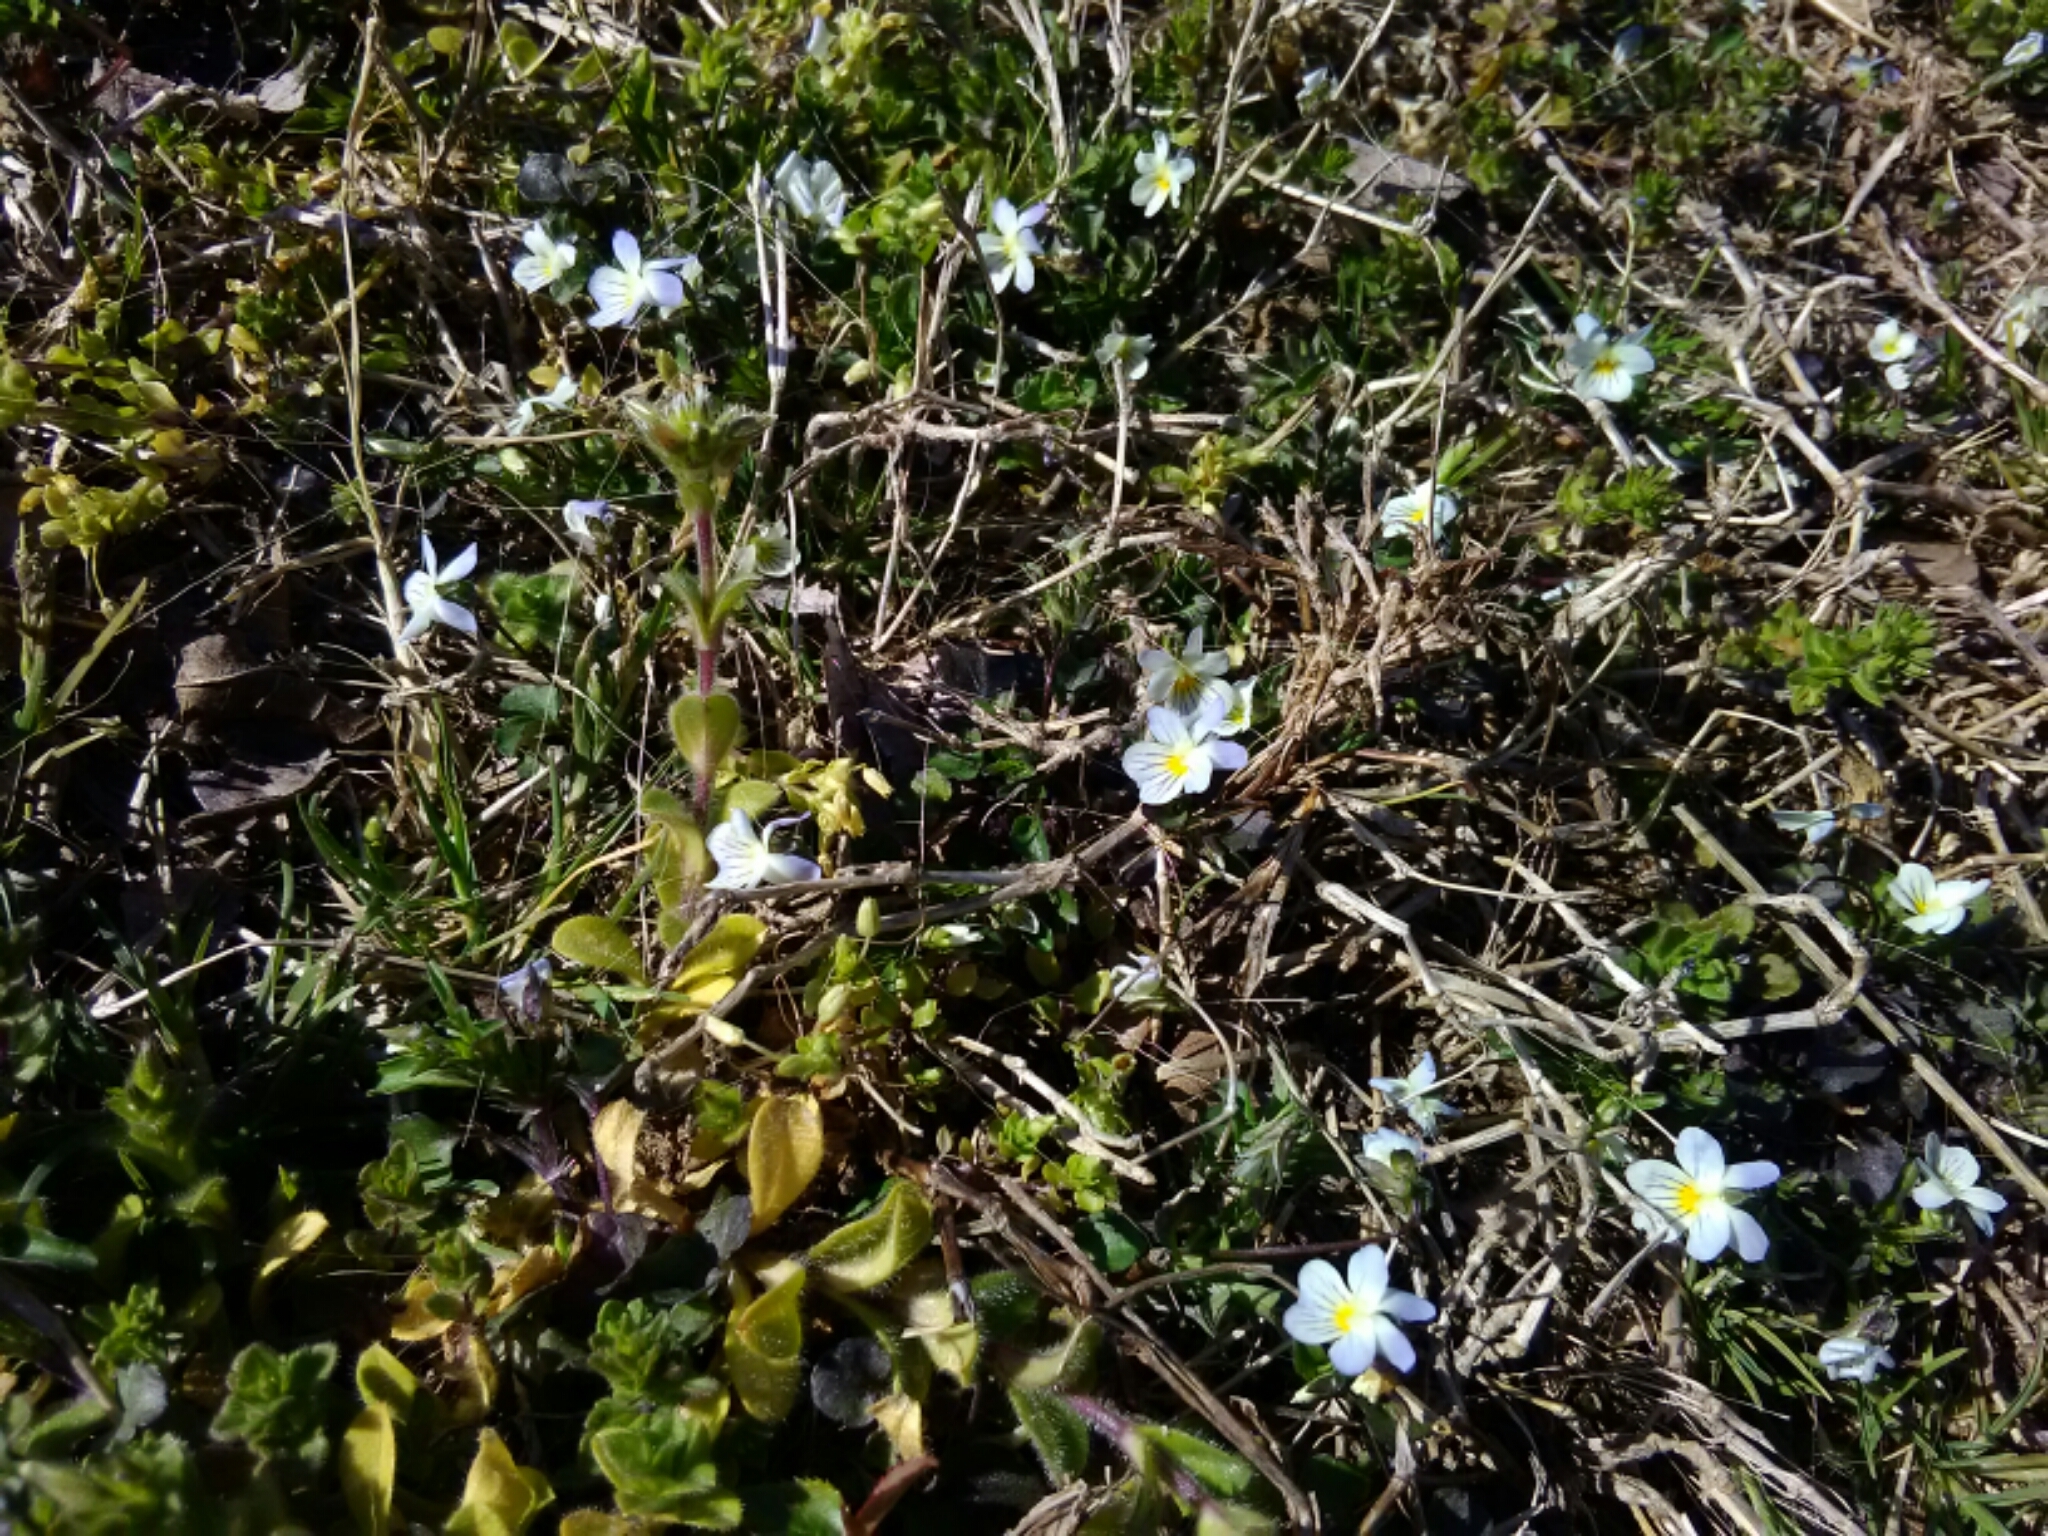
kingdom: Plantae
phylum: Tracheophyta
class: Magnoliopsida
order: Malpighiales
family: Violaceae
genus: Viola
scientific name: Viola rafinesquei
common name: American field pansy
